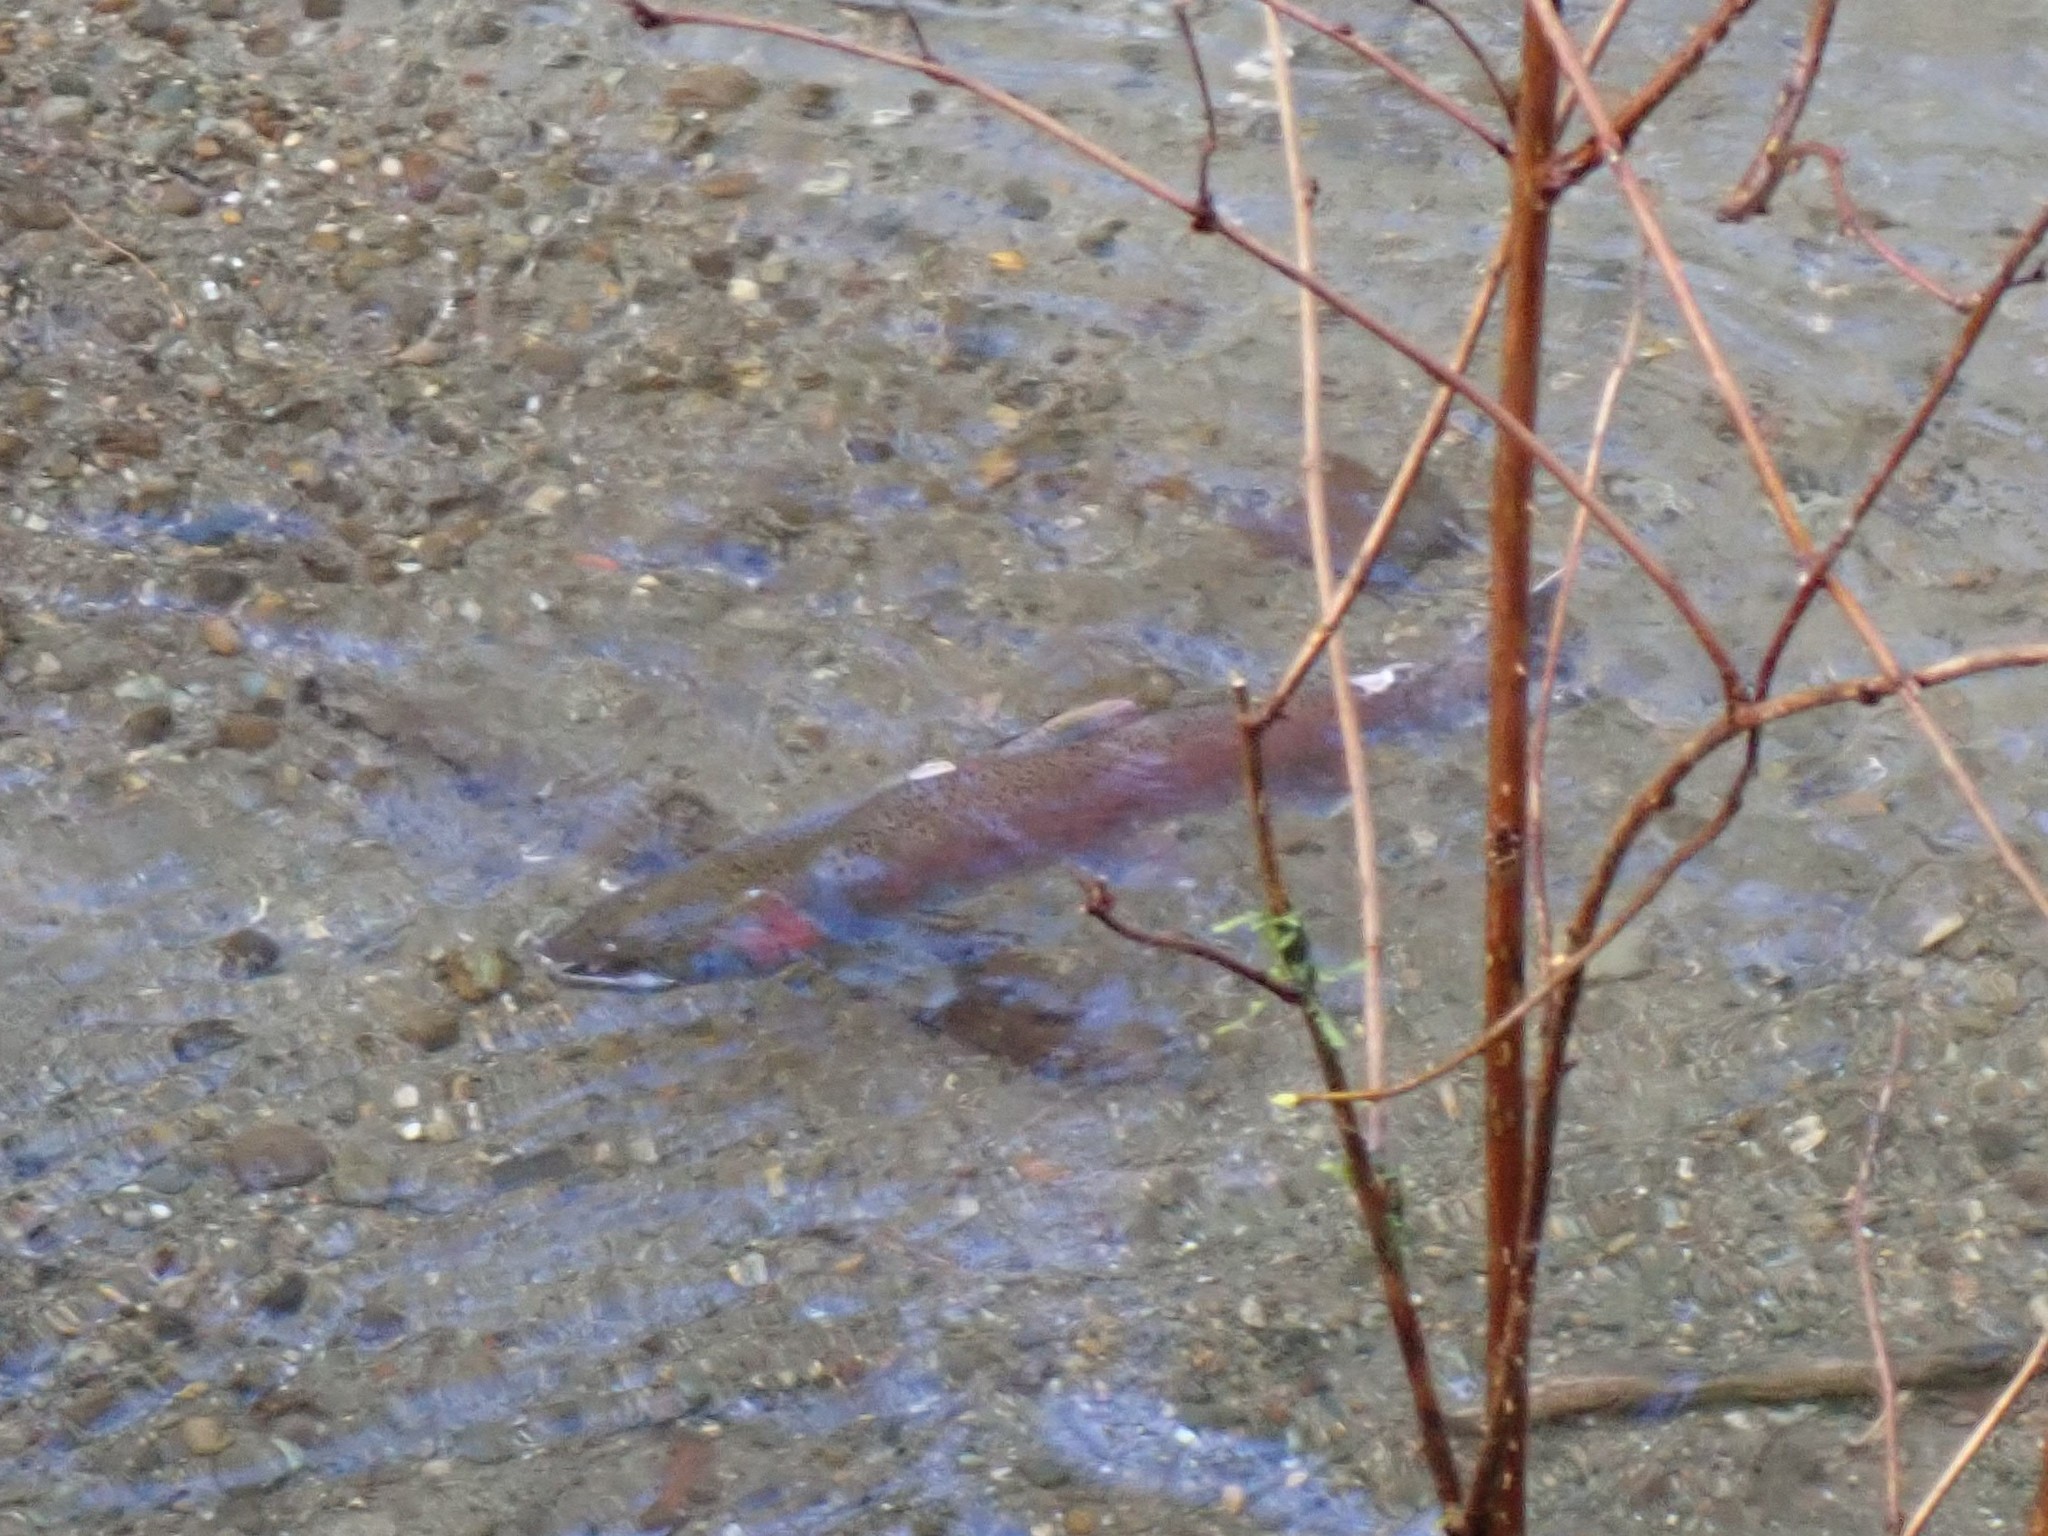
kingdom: Animalia
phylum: Chordata
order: Salmoniformes
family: Salmonidae
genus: Oncorhynchus
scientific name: Oncorhynchus kisutch
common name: Coho salmon
